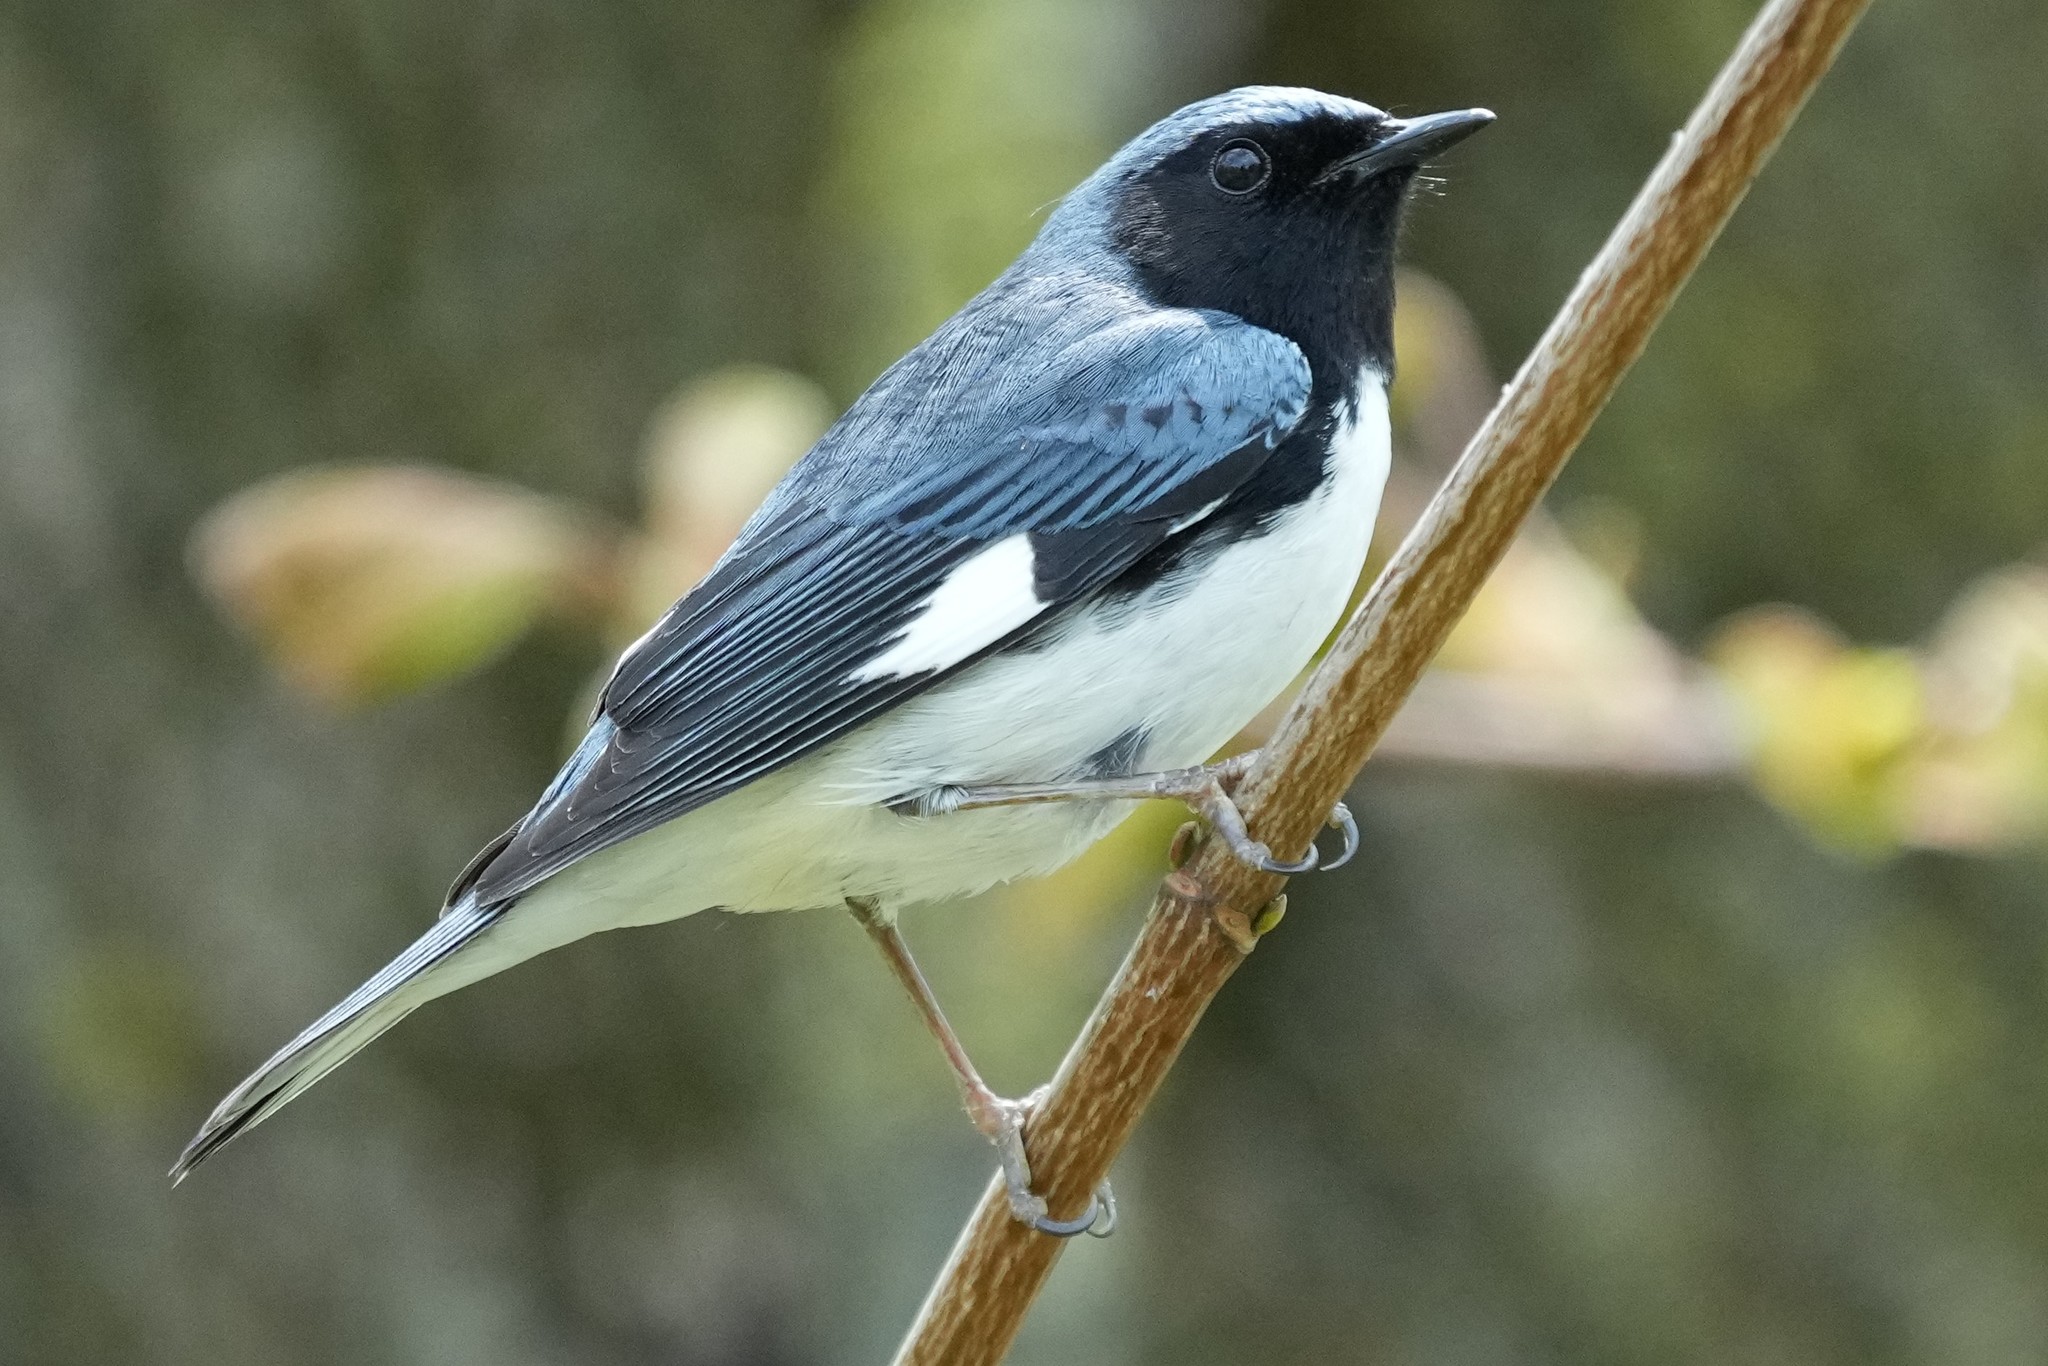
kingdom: Animalia
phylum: Chordata
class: Aves
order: Passeriformes
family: Parulidae
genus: Setophaga
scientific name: Setophaga caerulescens
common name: Black-throated blue warbler
